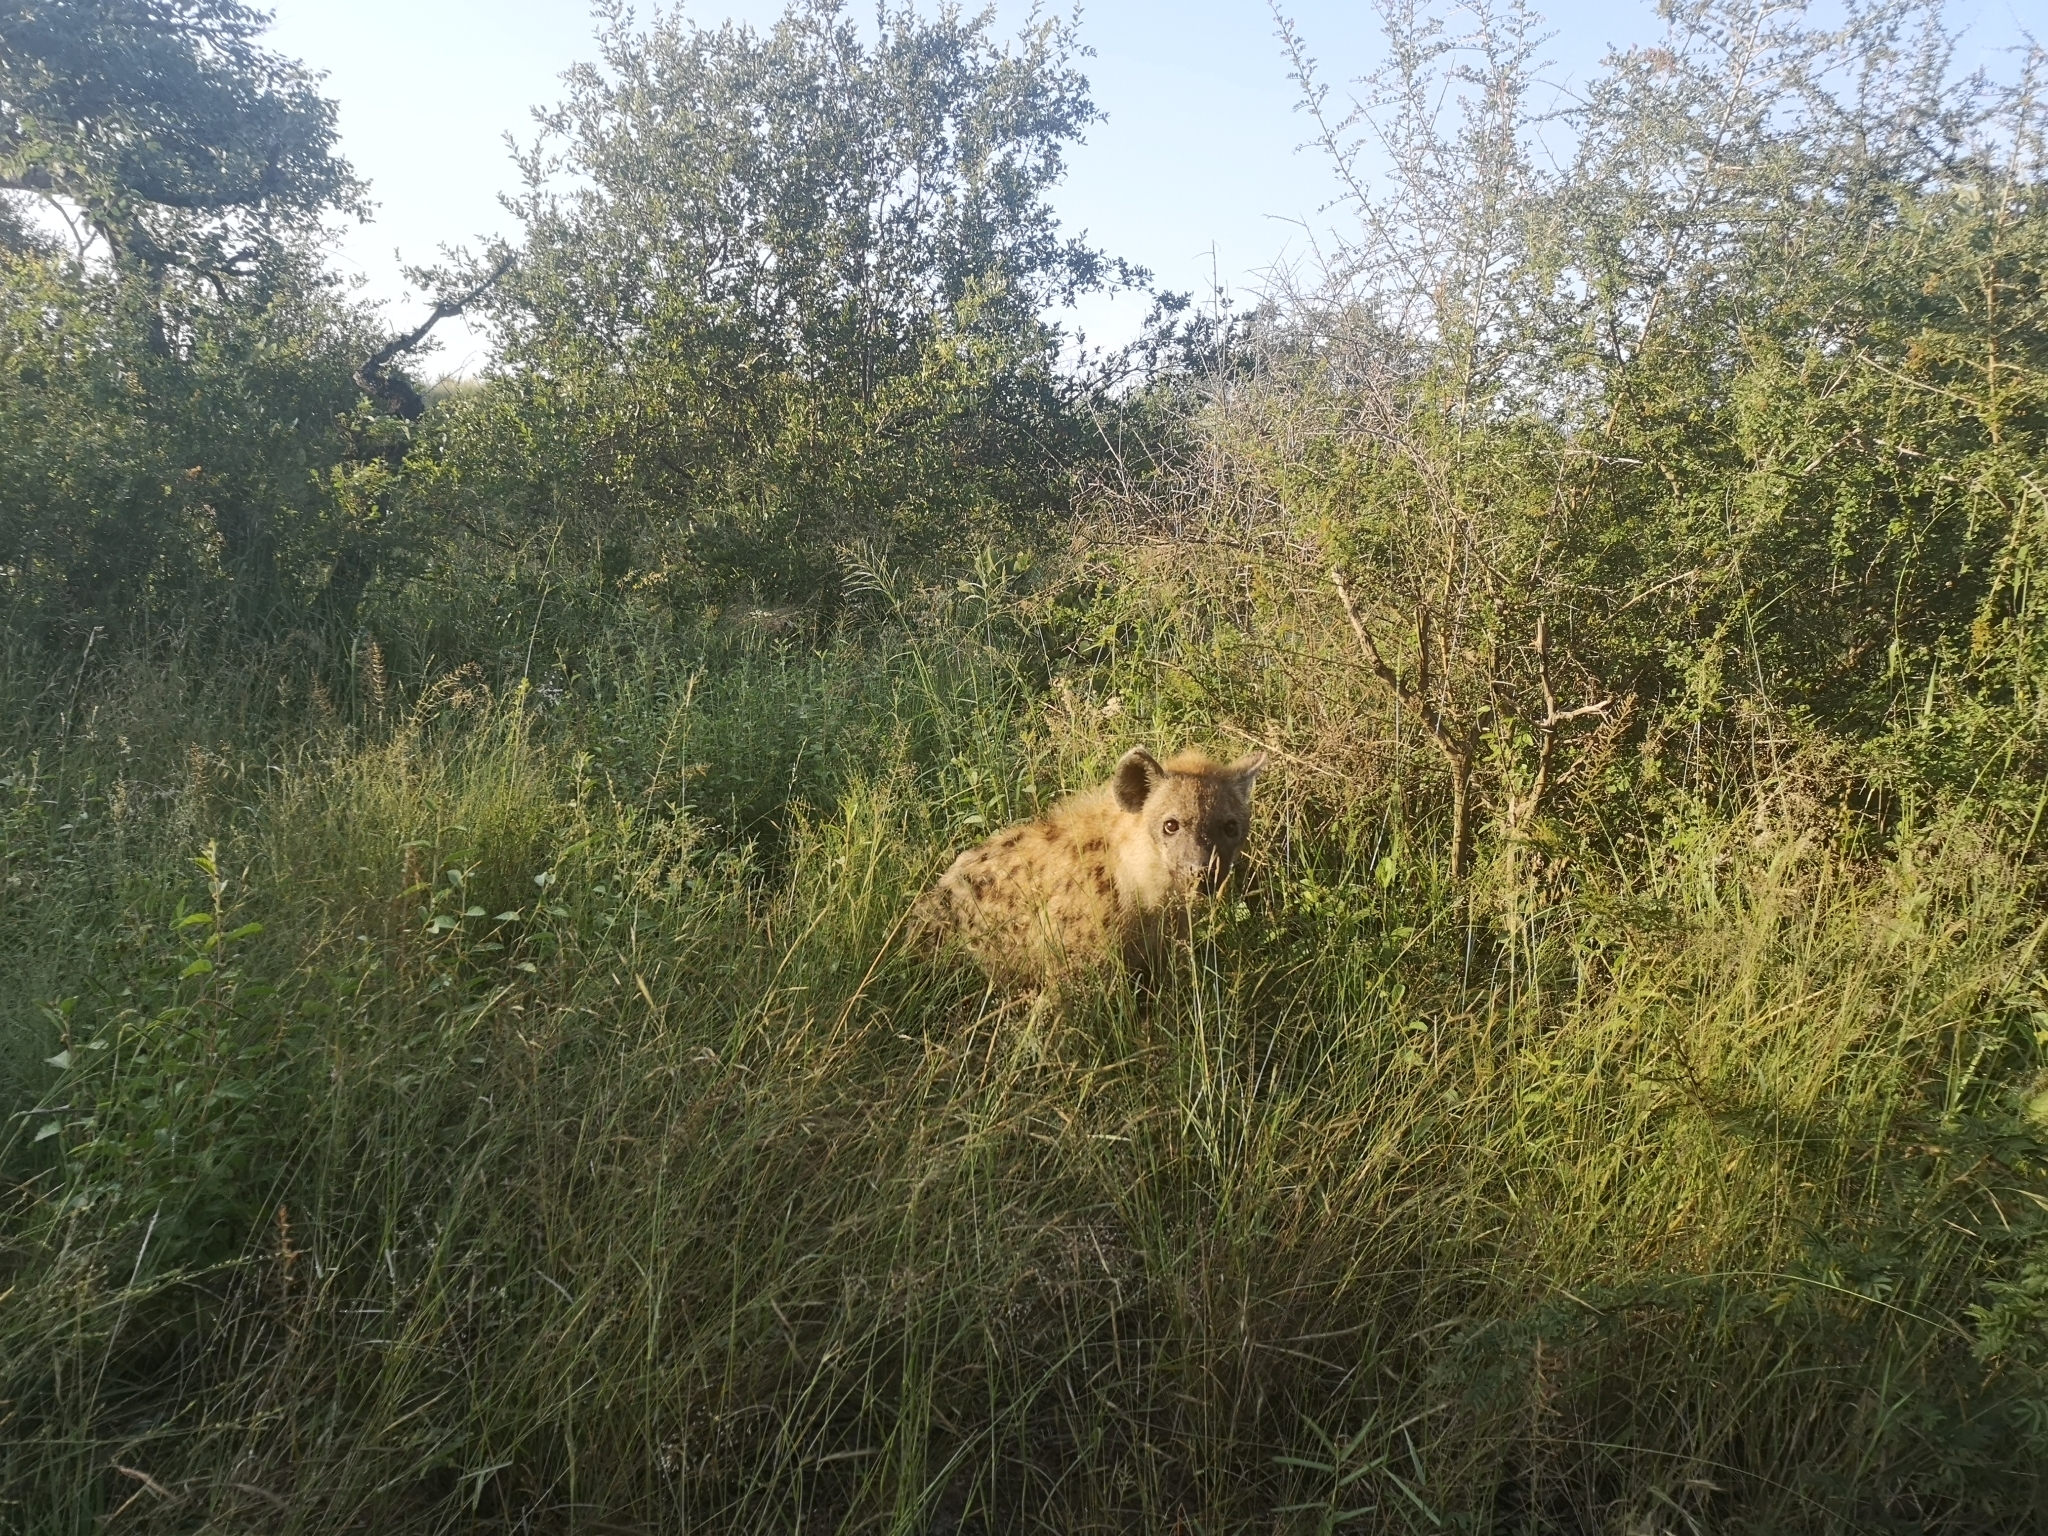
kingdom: Animalia
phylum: Chordata
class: Mammalia
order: Carnivora
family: Hyaenidae
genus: Crocuta
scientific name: Crocuta crocuta
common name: Spotted hyaena
